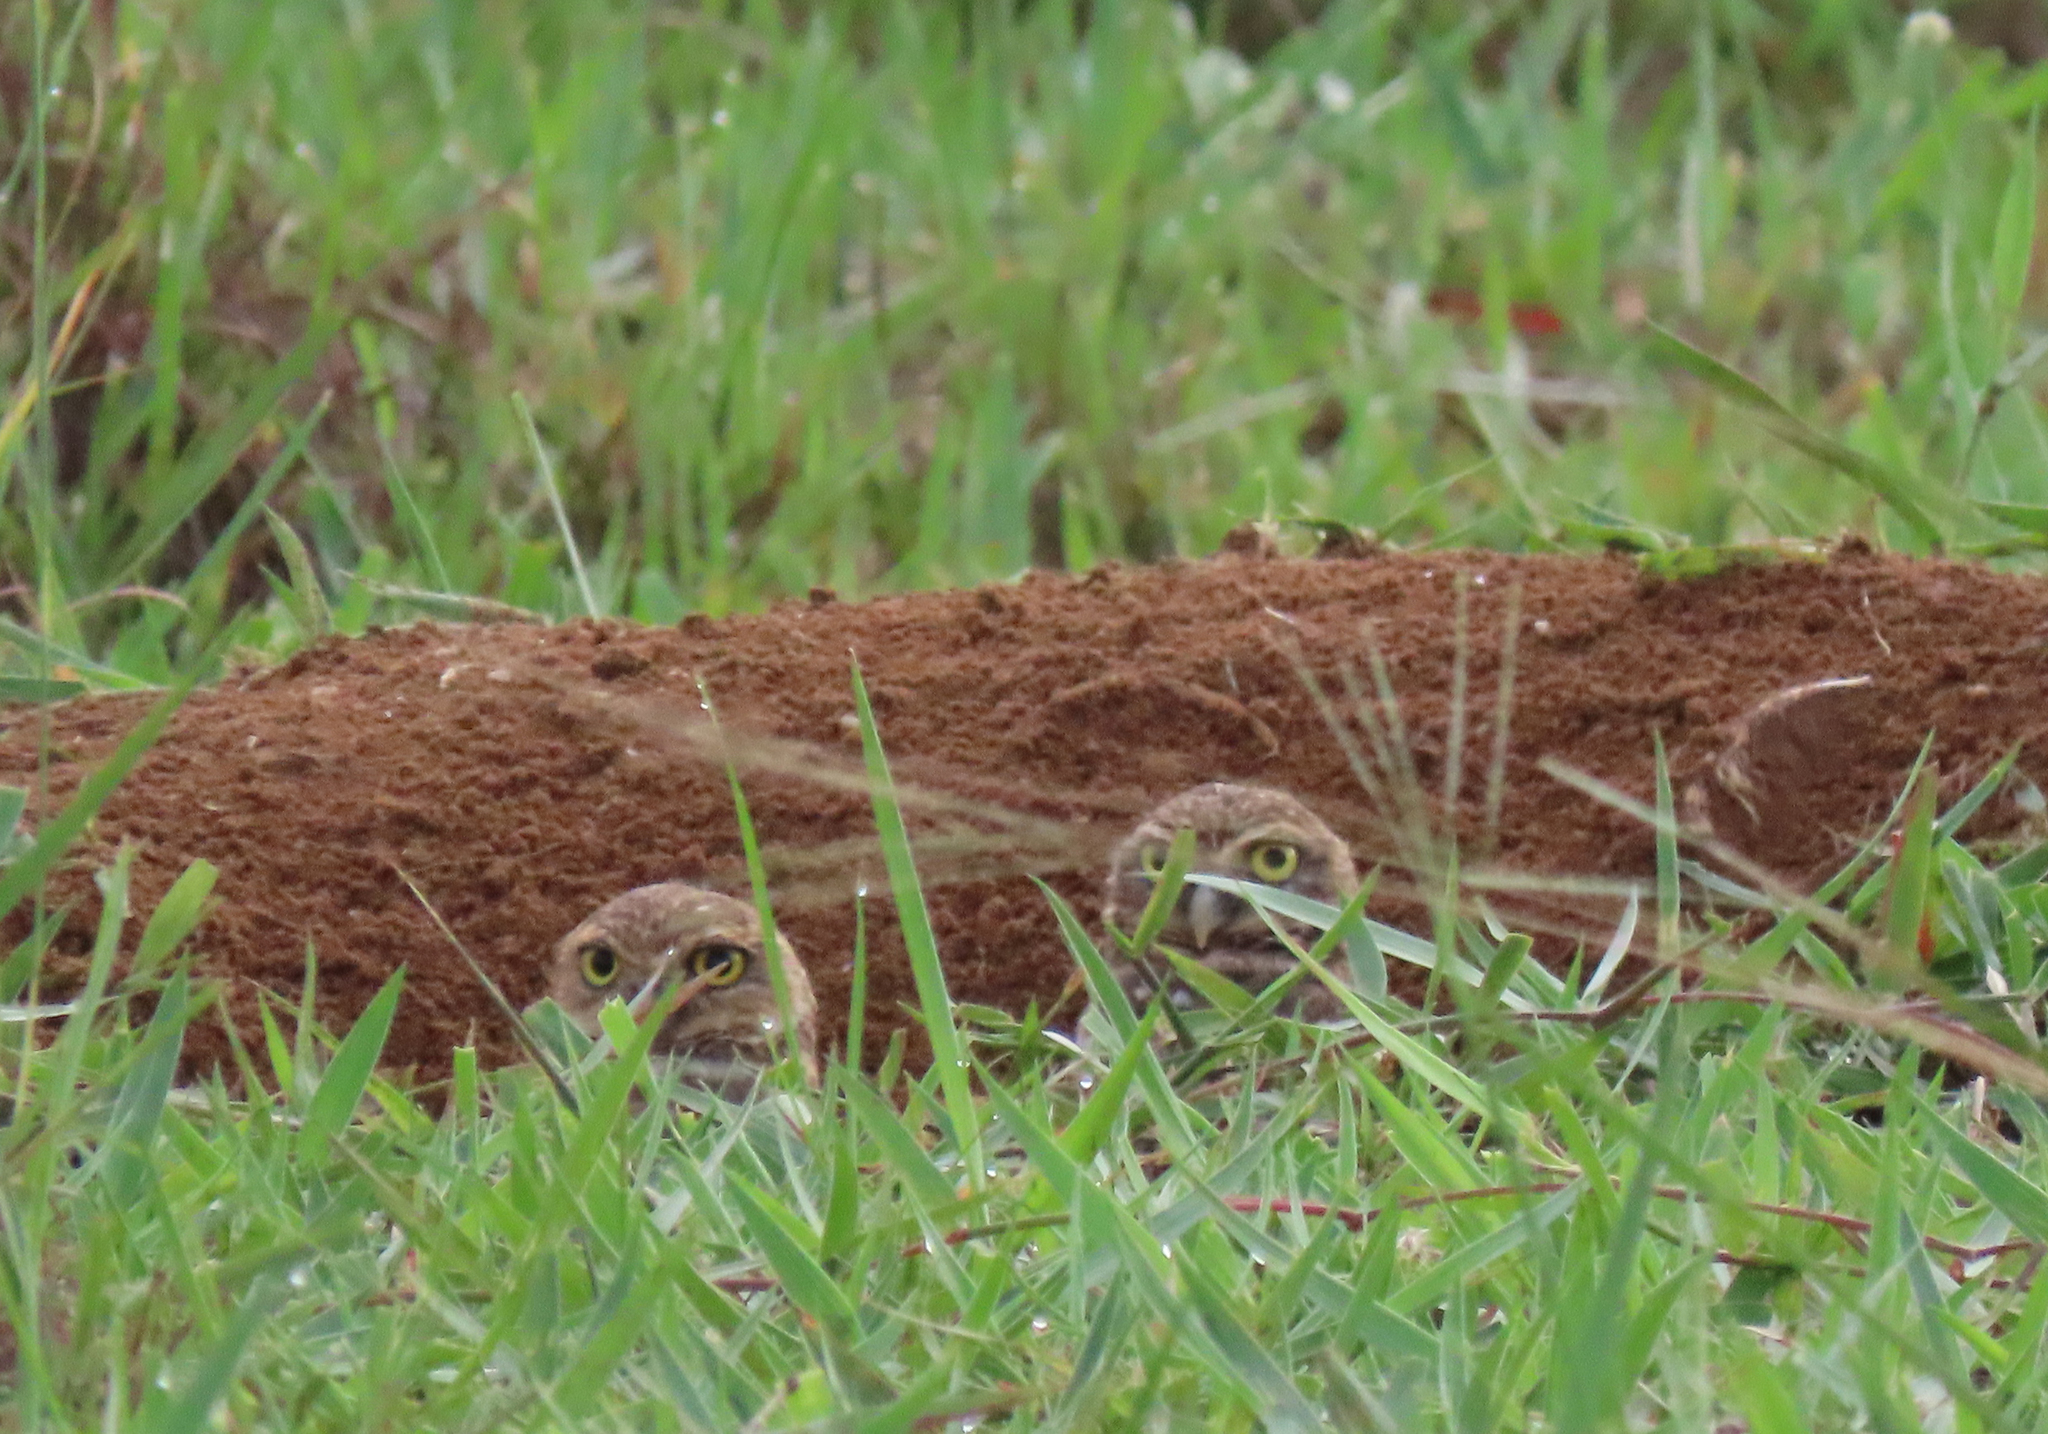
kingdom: Animalia
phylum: Chordata
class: Aves
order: Strigiformes
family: Strigidae
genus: Athene
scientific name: Athene cunicularia
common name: Burrowing owl
